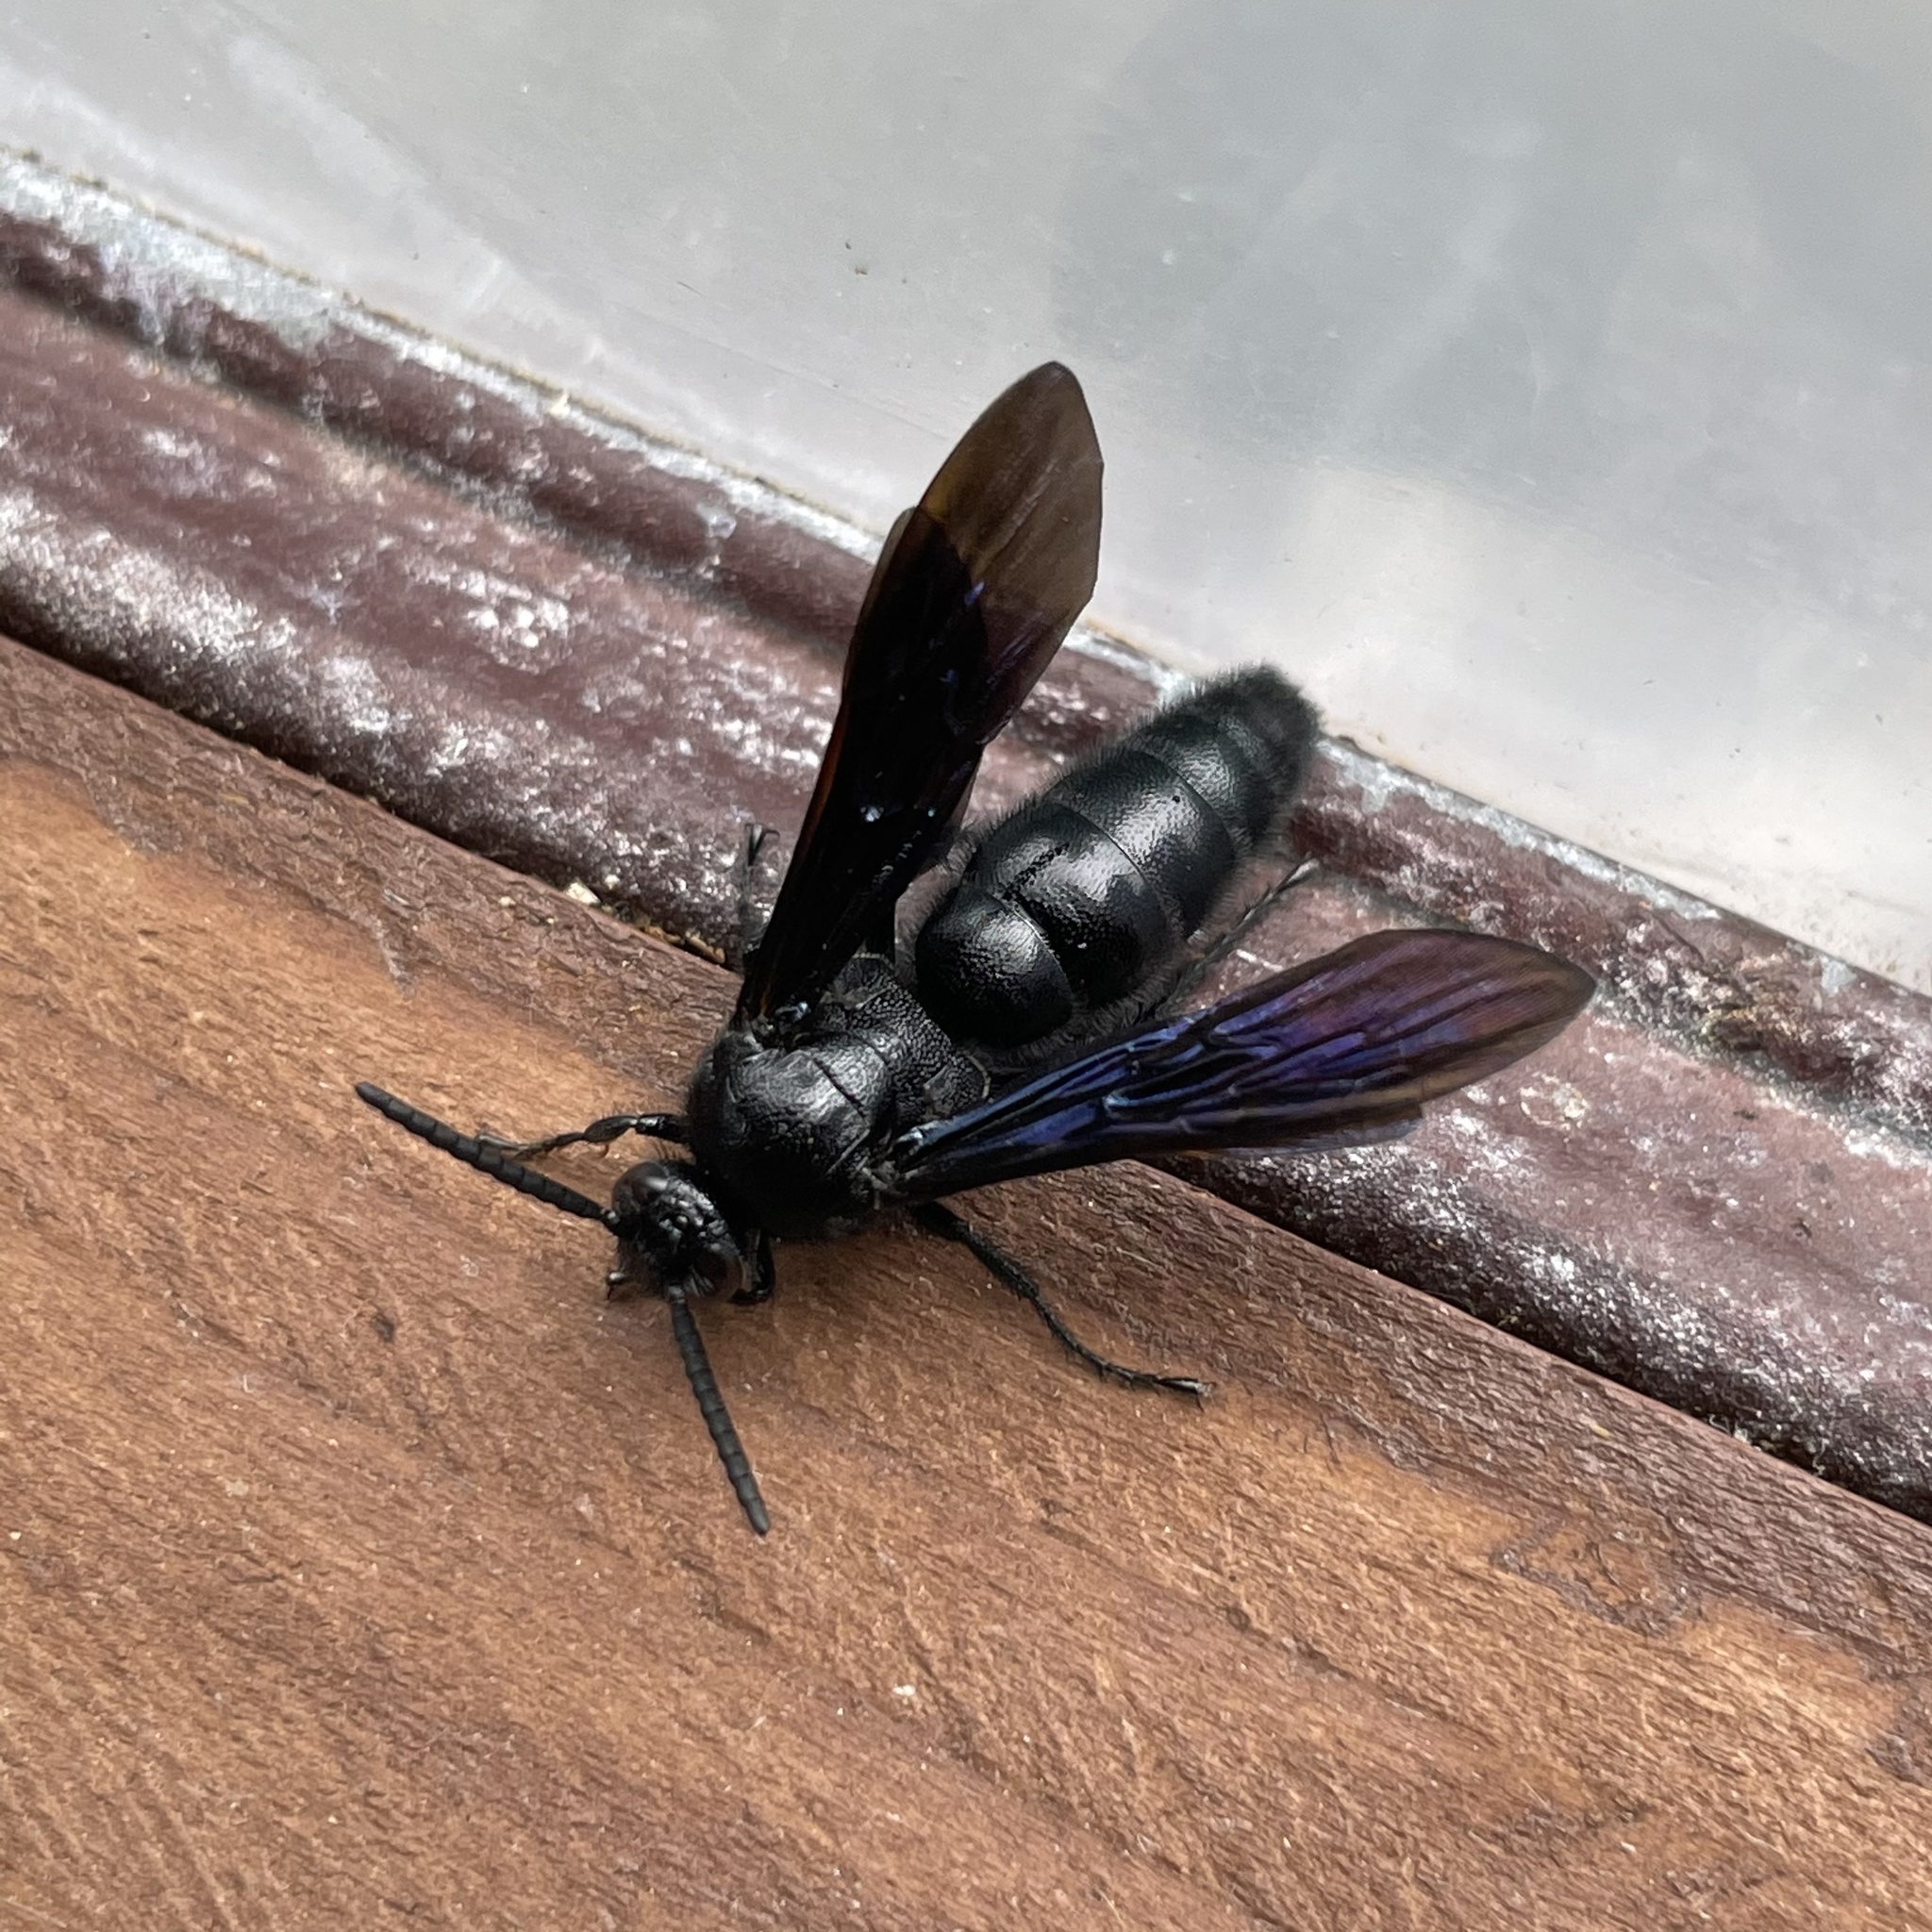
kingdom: Animalia
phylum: Arthropoda
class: Insecta
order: Hymenoptera
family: Scoliidae
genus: Carinoscolia
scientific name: Carinoscolia
